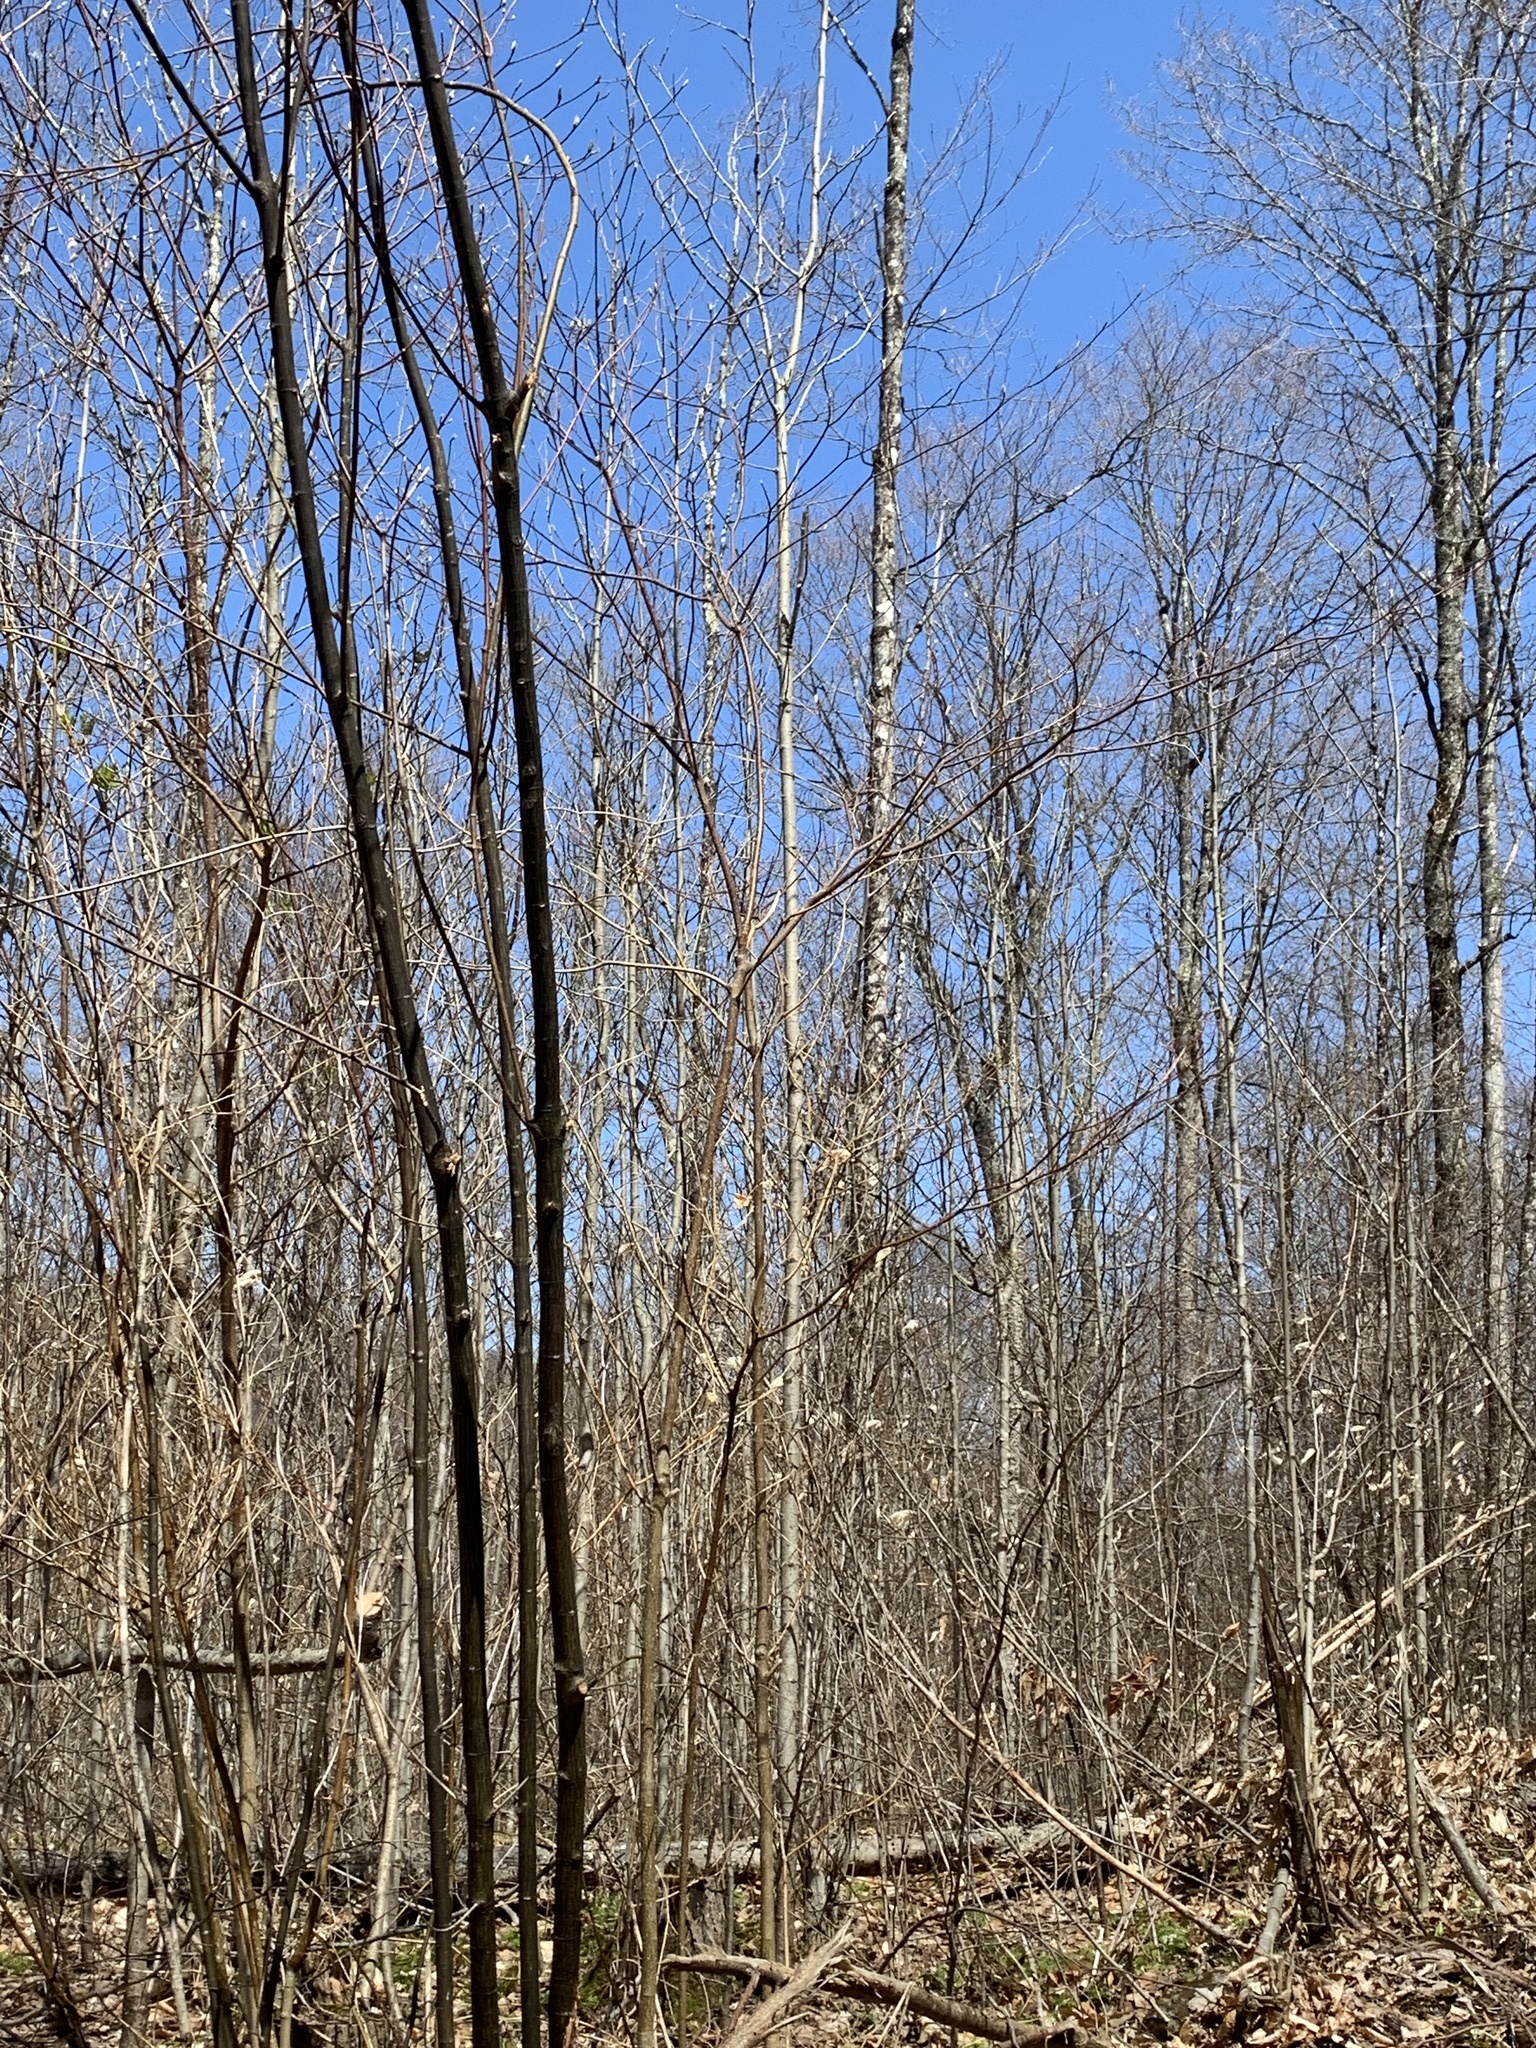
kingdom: Plantae
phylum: Tracheophyta
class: Magnoliopsida
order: Cornales
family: Cornaceae
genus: Cornus
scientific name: Cornus alternifolia
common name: Pagoda dogwood
